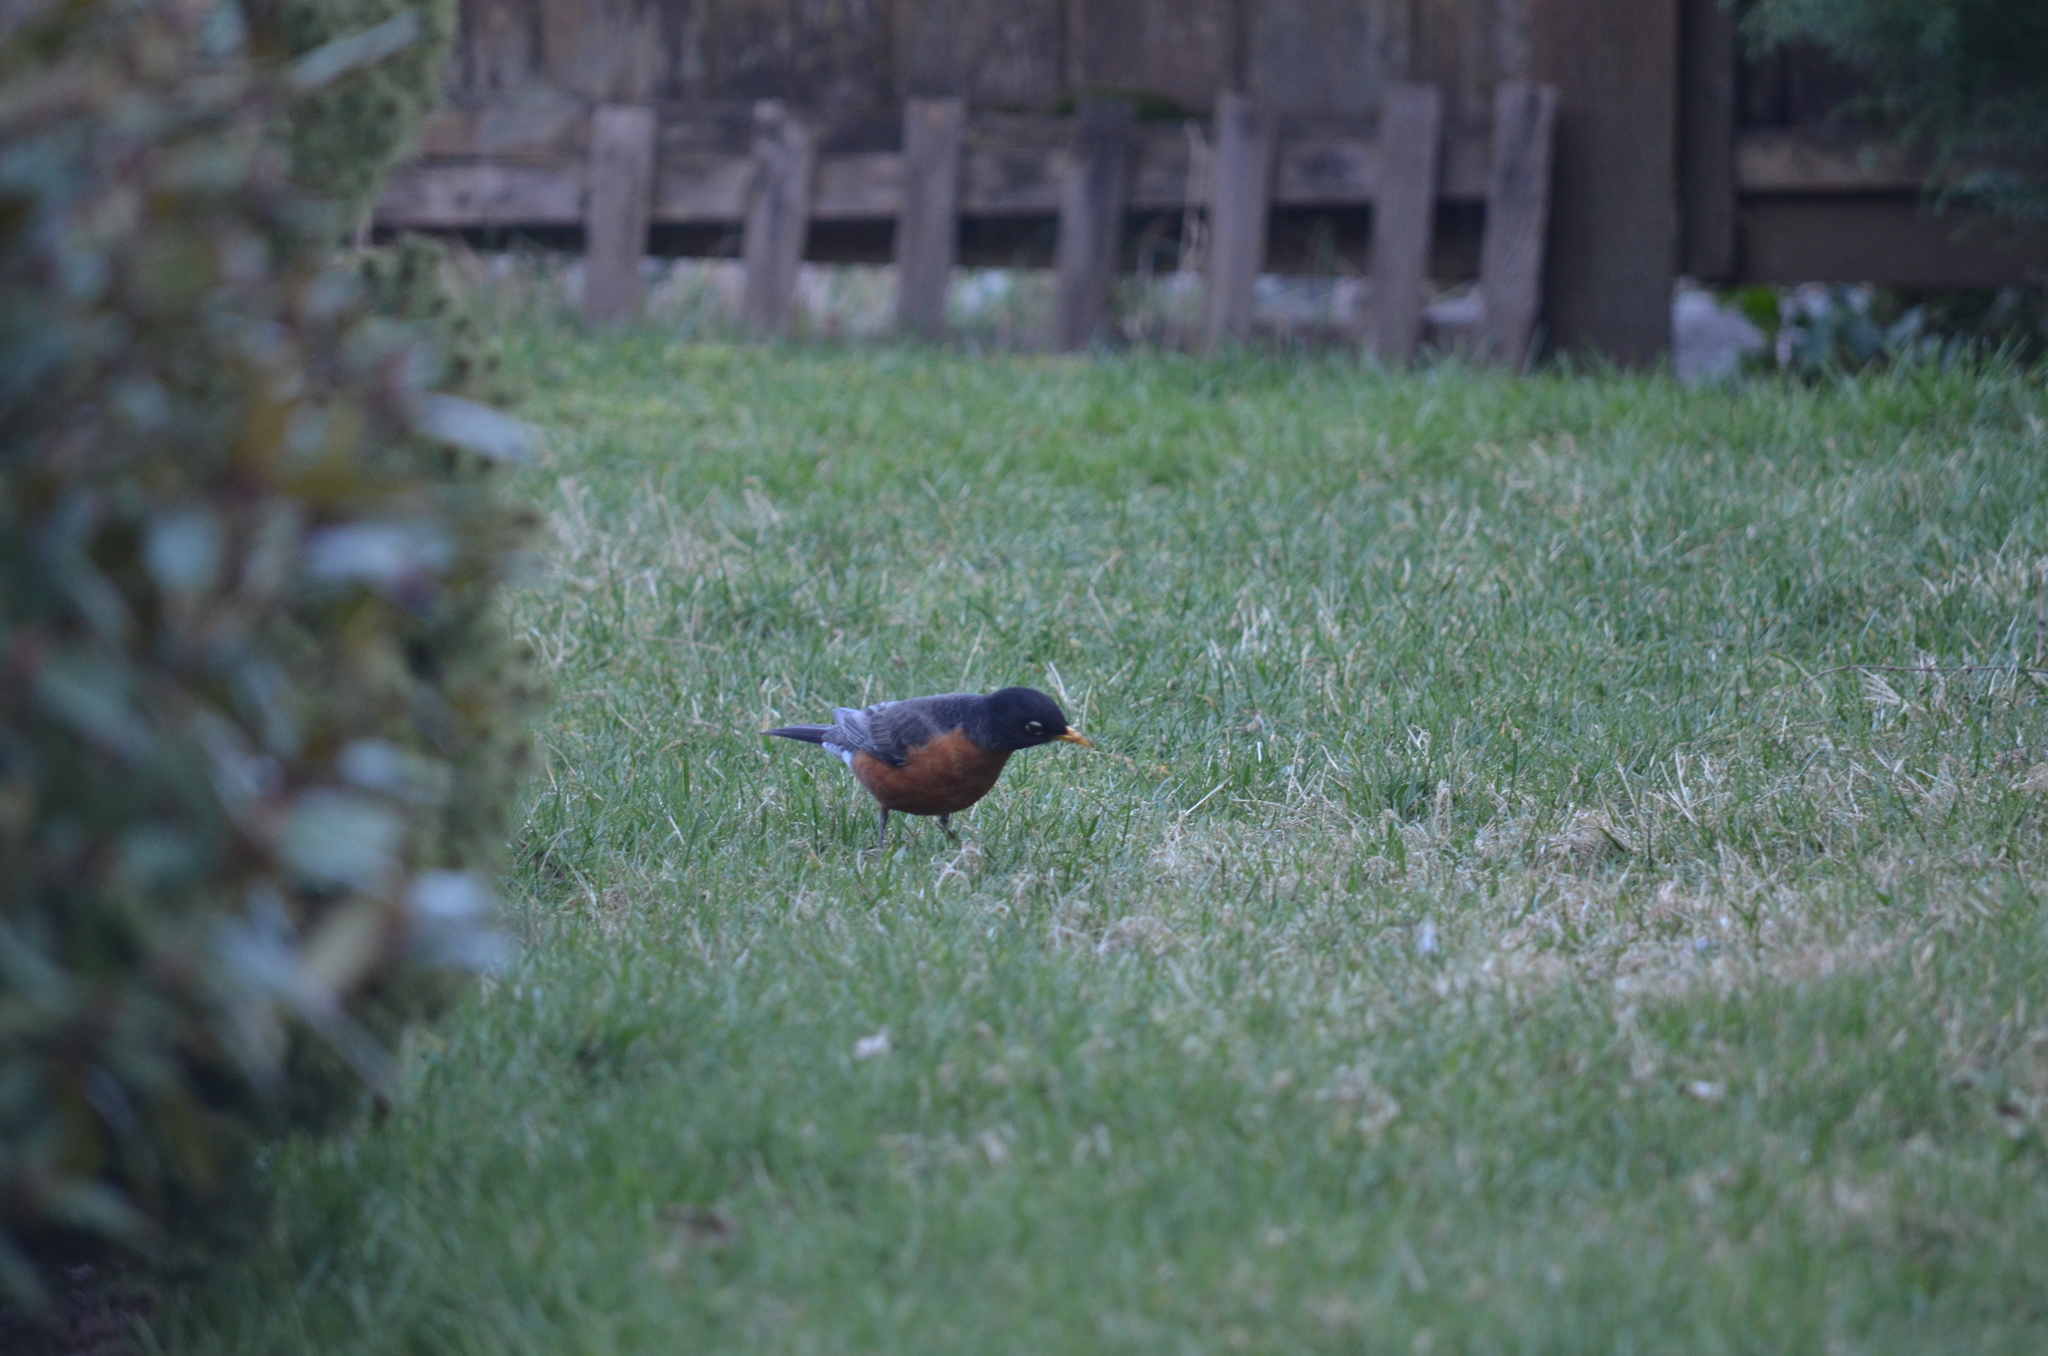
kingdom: Animalia
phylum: Chordata
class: Aves
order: Passeriformes
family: Turdidae
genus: Turdus
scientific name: Turdus migratorius
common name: American robin
